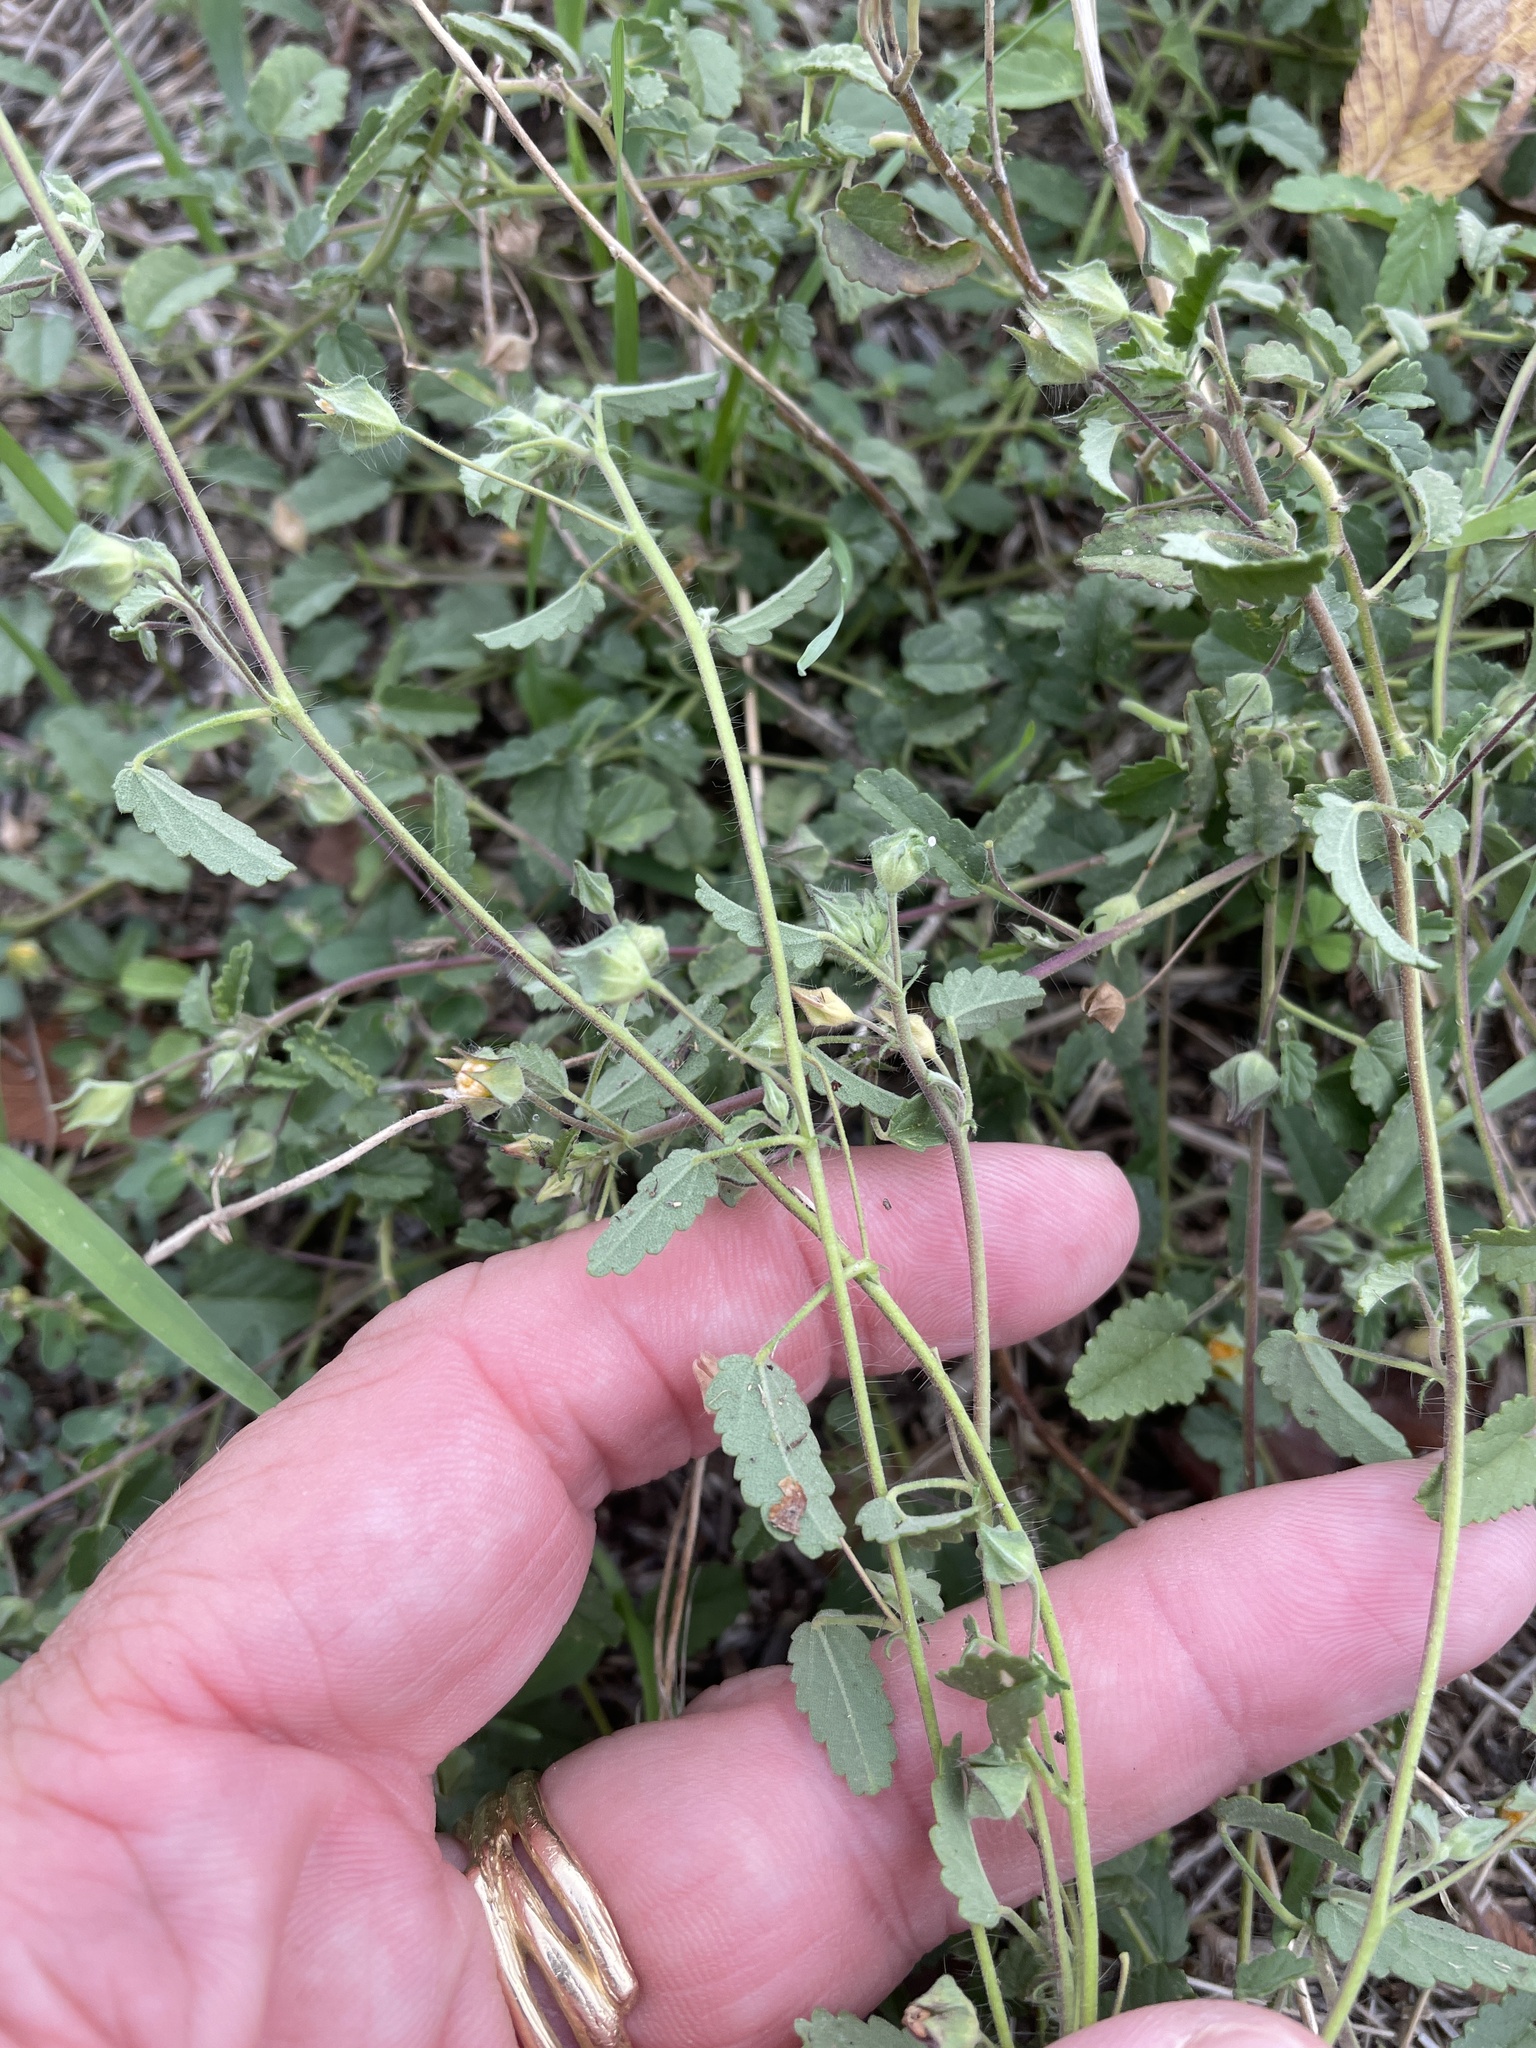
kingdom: Plantae
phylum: Tracheophyta
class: Magnoliopsida
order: Malvales
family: Malvaceae
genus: Sida
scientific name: Sida abutilifolia
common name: Spreading fanpetals
